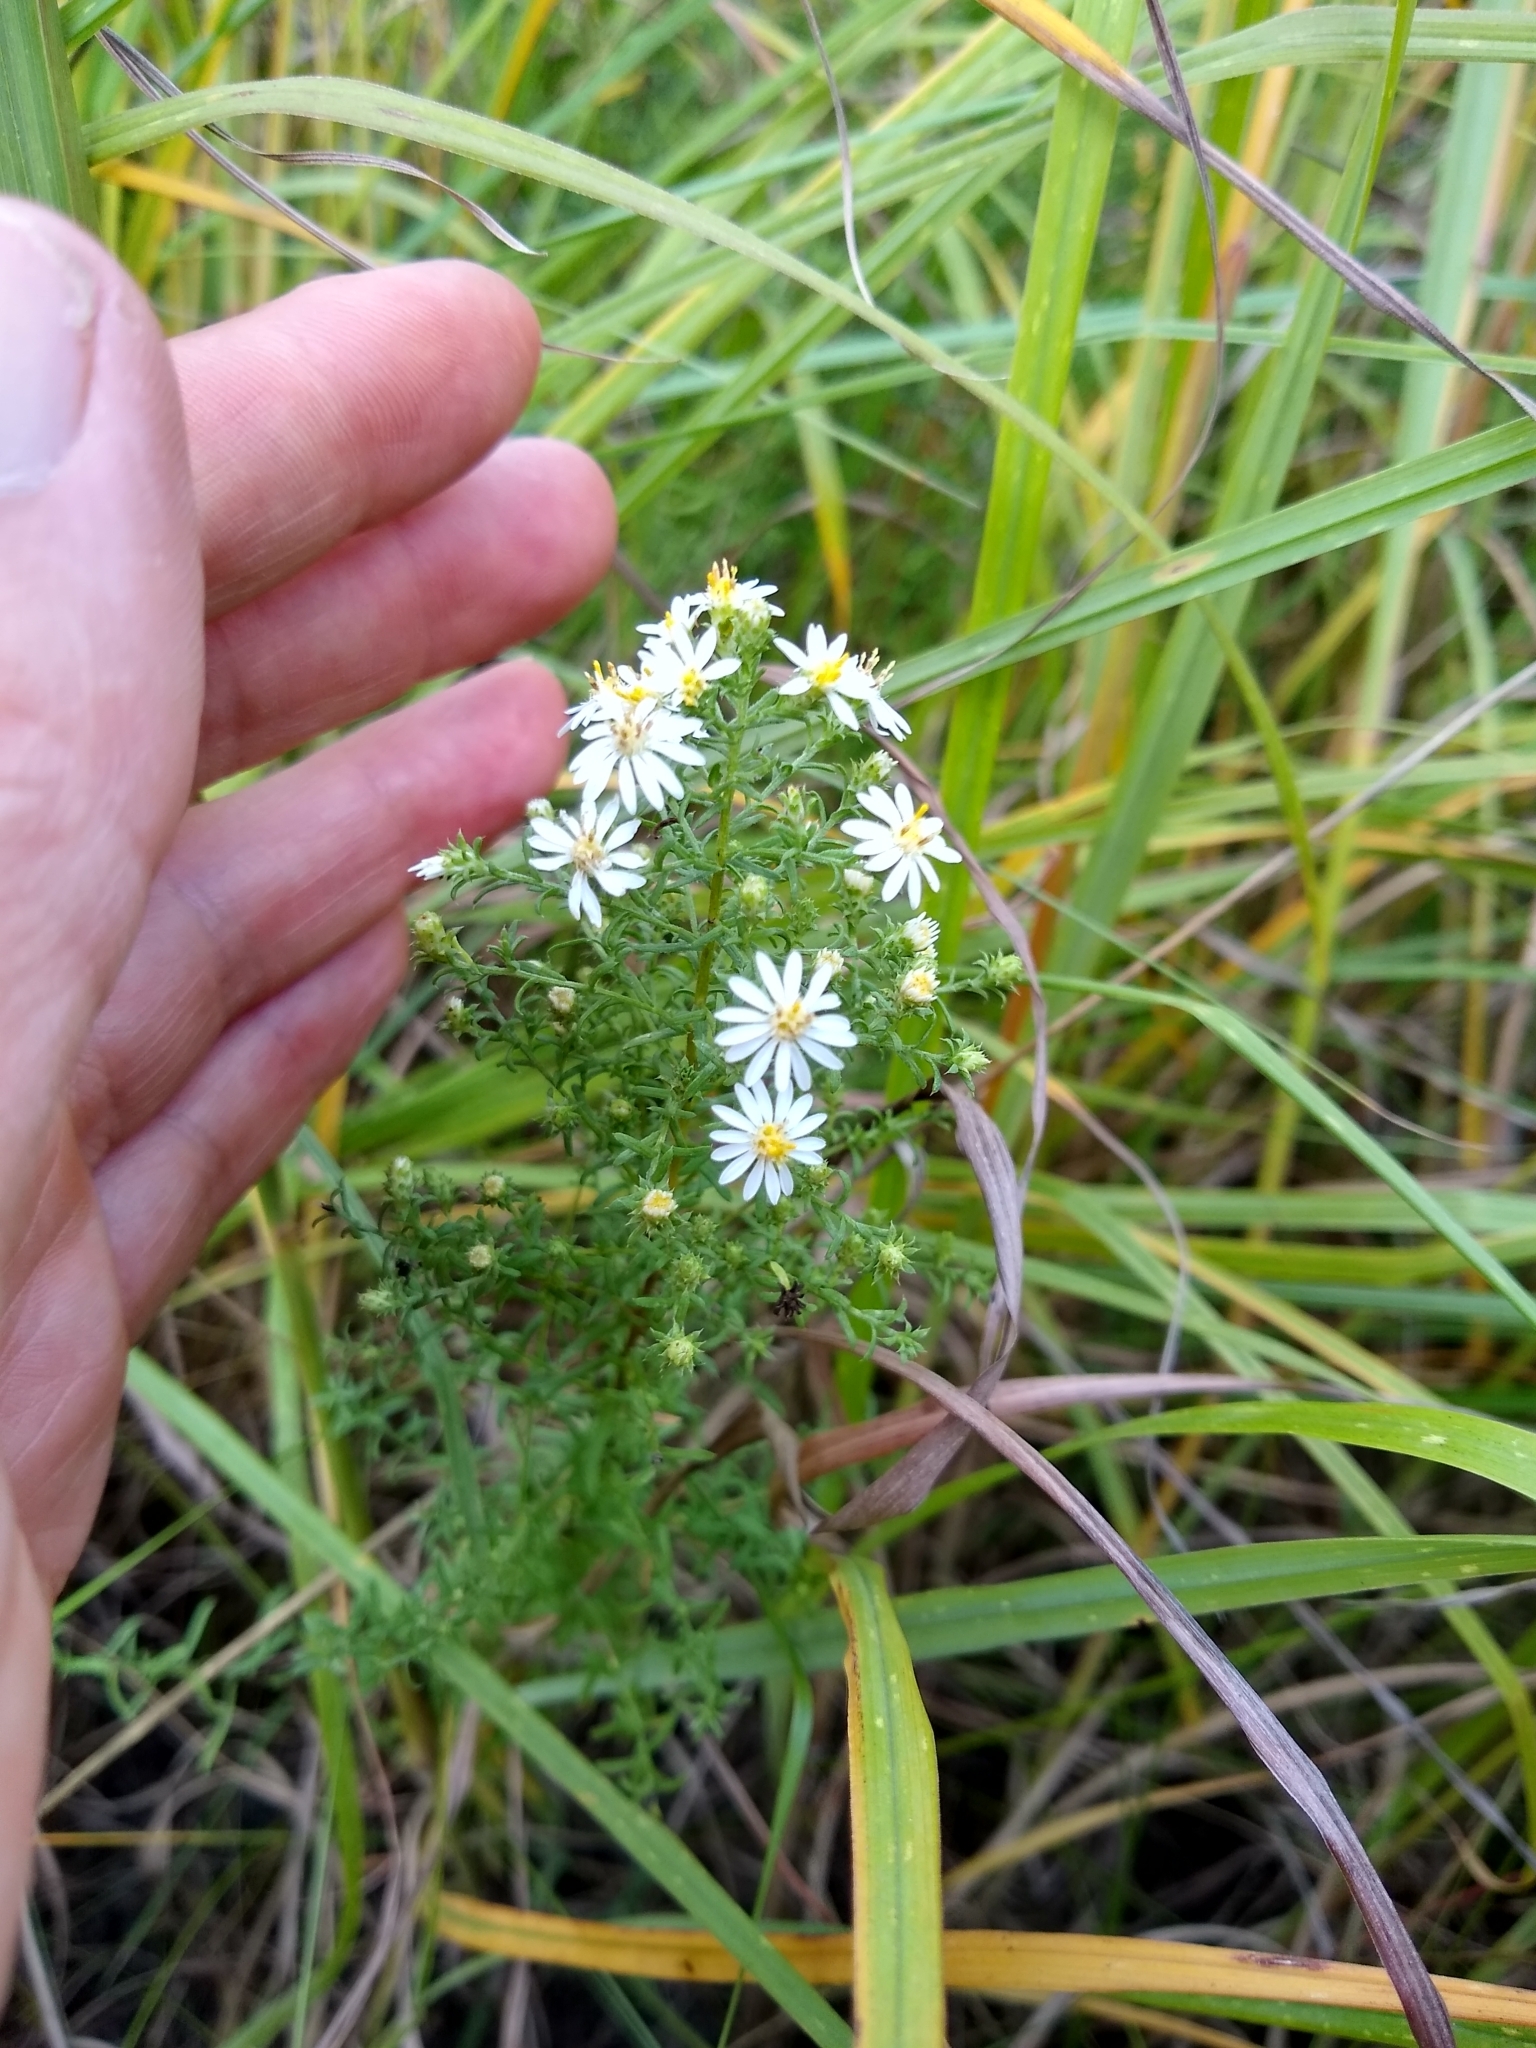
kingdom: Plantae
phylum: Tracheophyta
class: Magnoliopsida
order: Asterales
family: Asteraceae
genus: Symphyotrichum
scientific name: Symphyotrichum ericoides
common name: Heath aster
